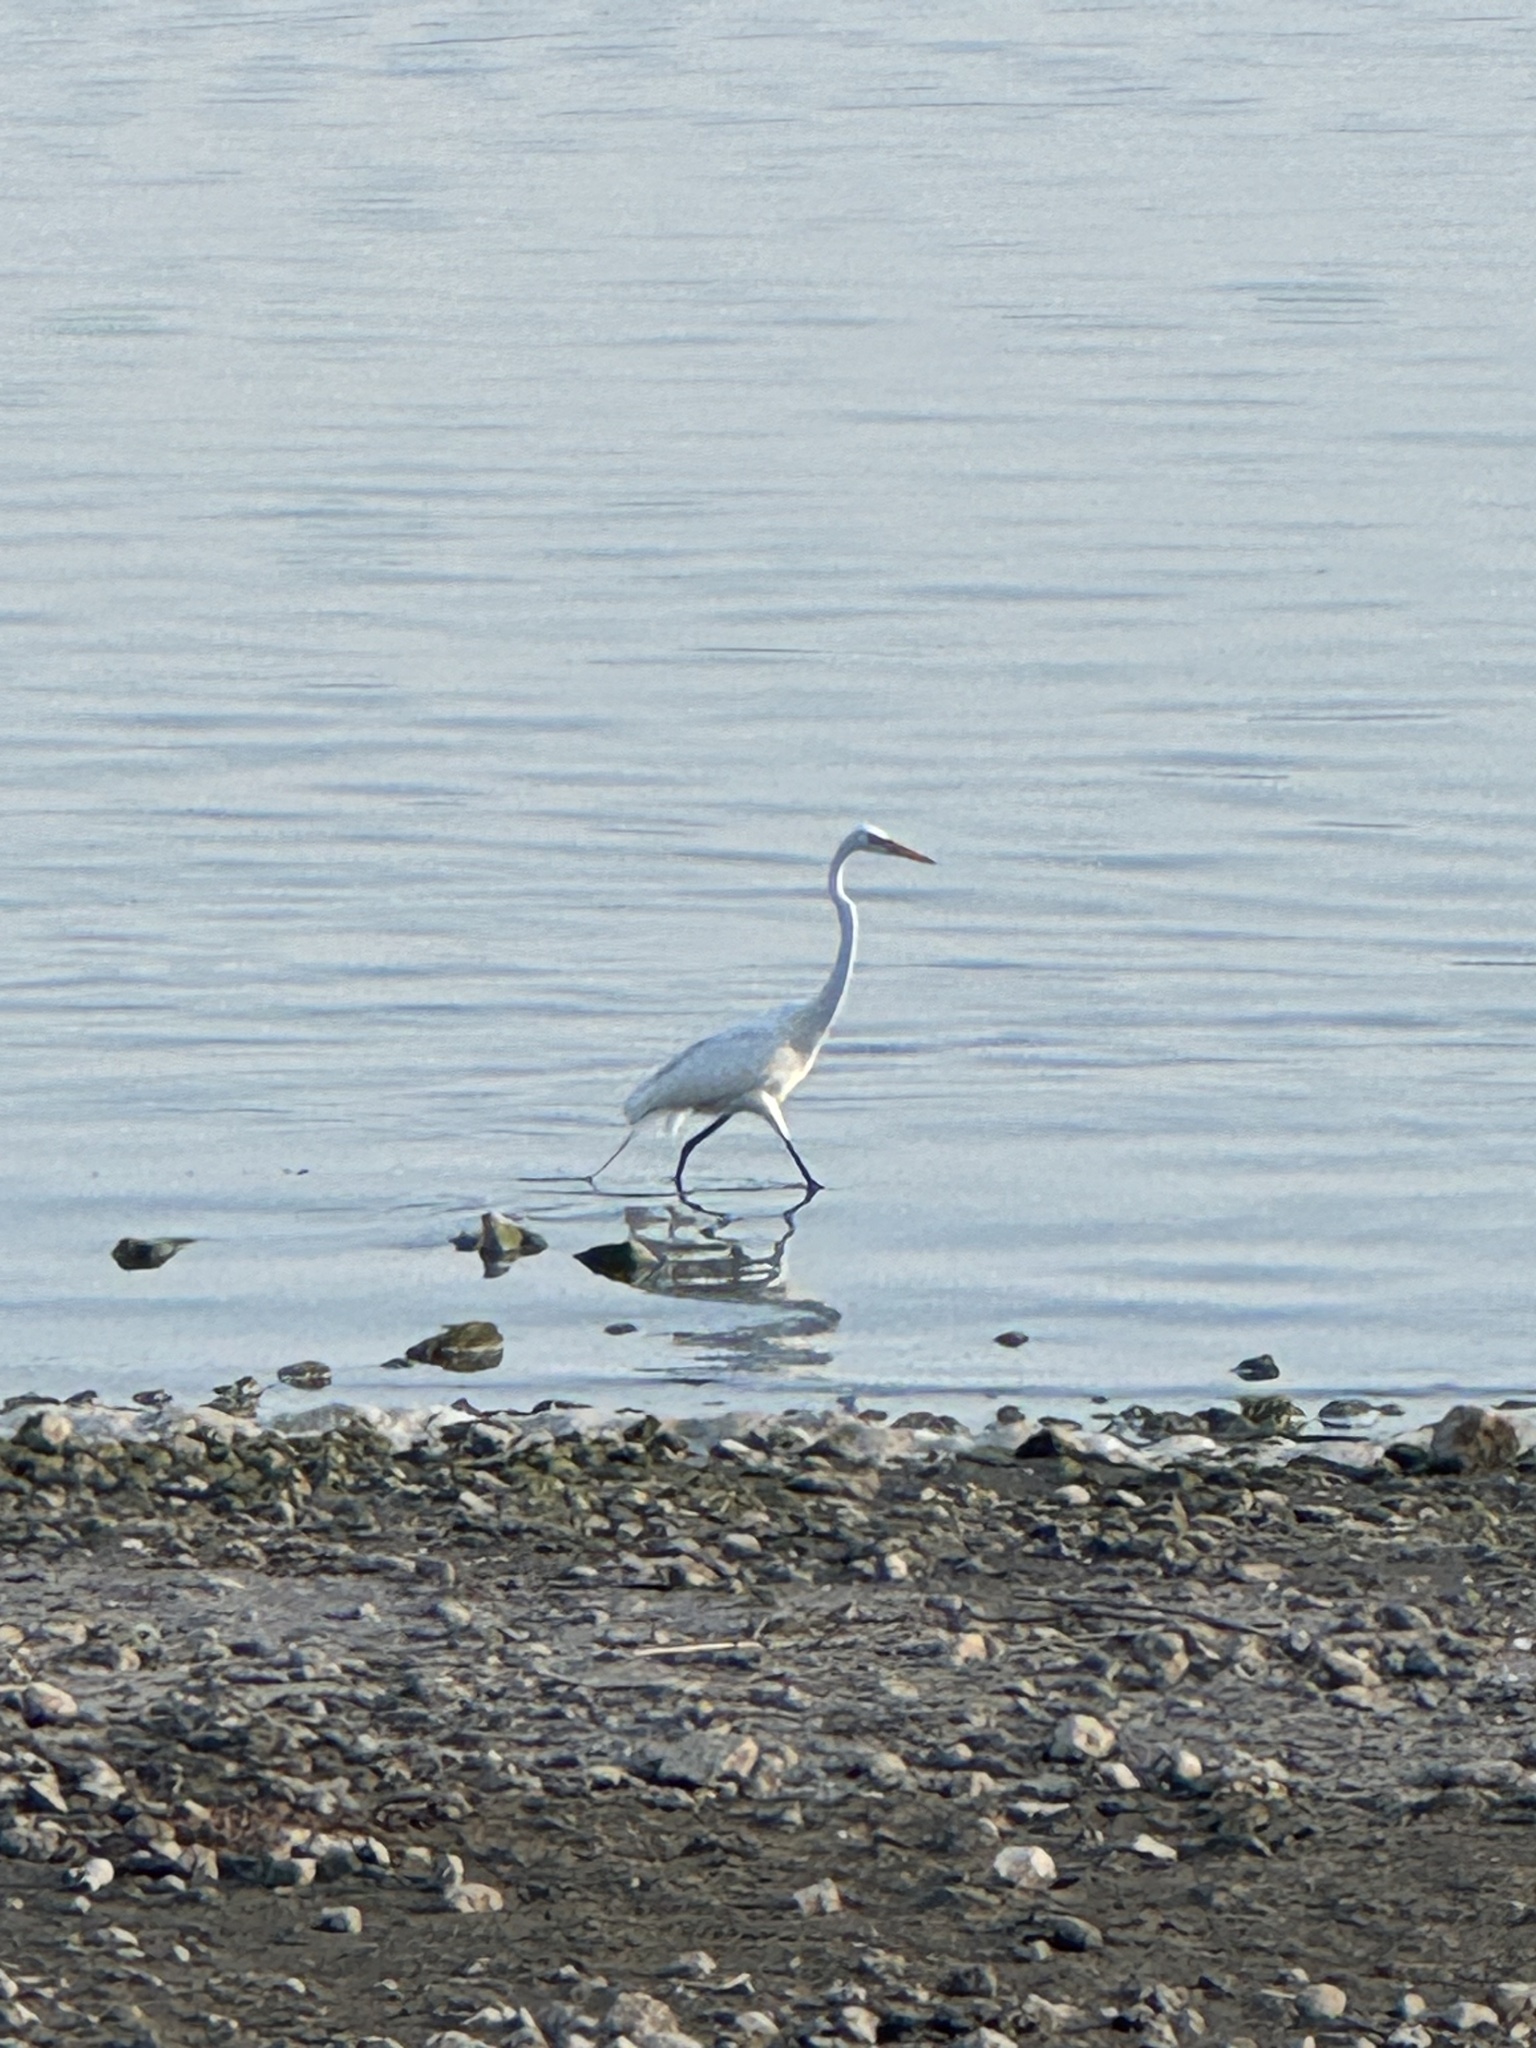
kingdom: Animalia
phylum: Chordata
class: Aves
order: Pelecaniformes
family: Ardeidae
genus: Ardea
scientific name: Ardea alba
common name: Great egret
